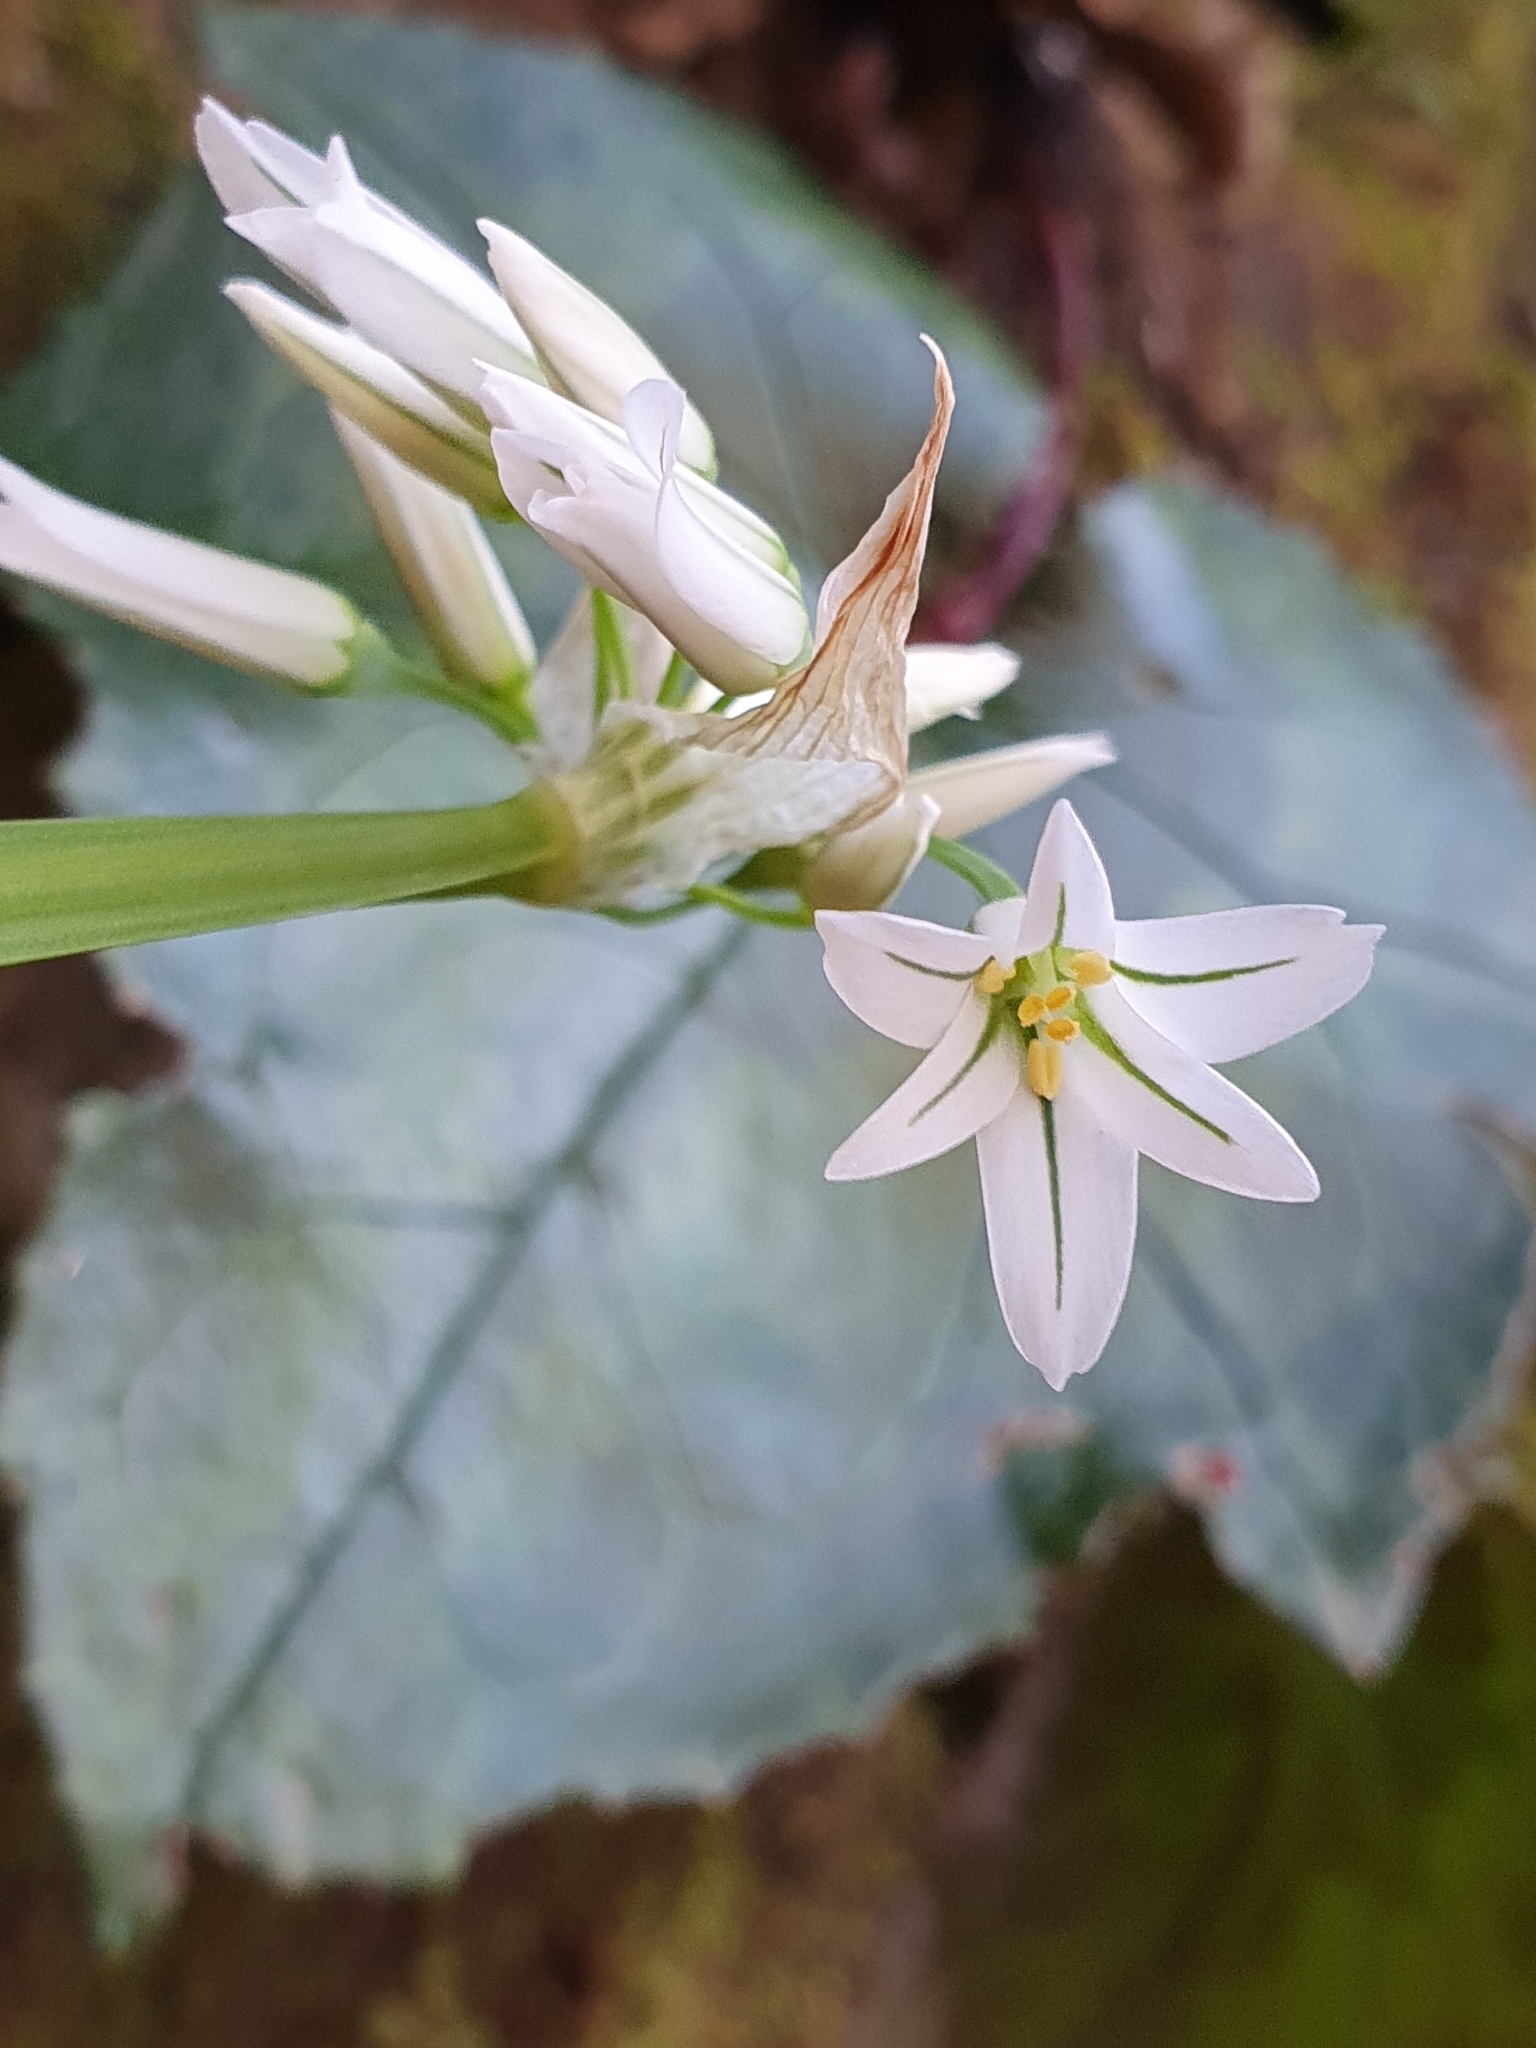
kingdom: Plantae
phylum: Tracheophyta
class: Liliopsida
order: Asparagales
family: Amaryllidaceae
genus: Allium
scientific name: Allium triquetrum
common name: Three-cornered garlic
